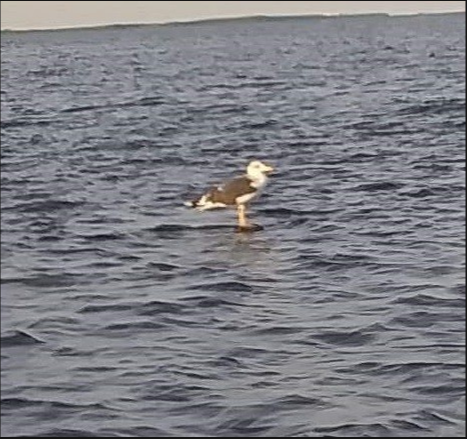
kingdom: Animalia
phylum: Chordata
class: Aves
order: Charadriiformes
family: Laridae
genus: Larus
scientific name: Larus fuscus
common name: Lesser black-backed gull
